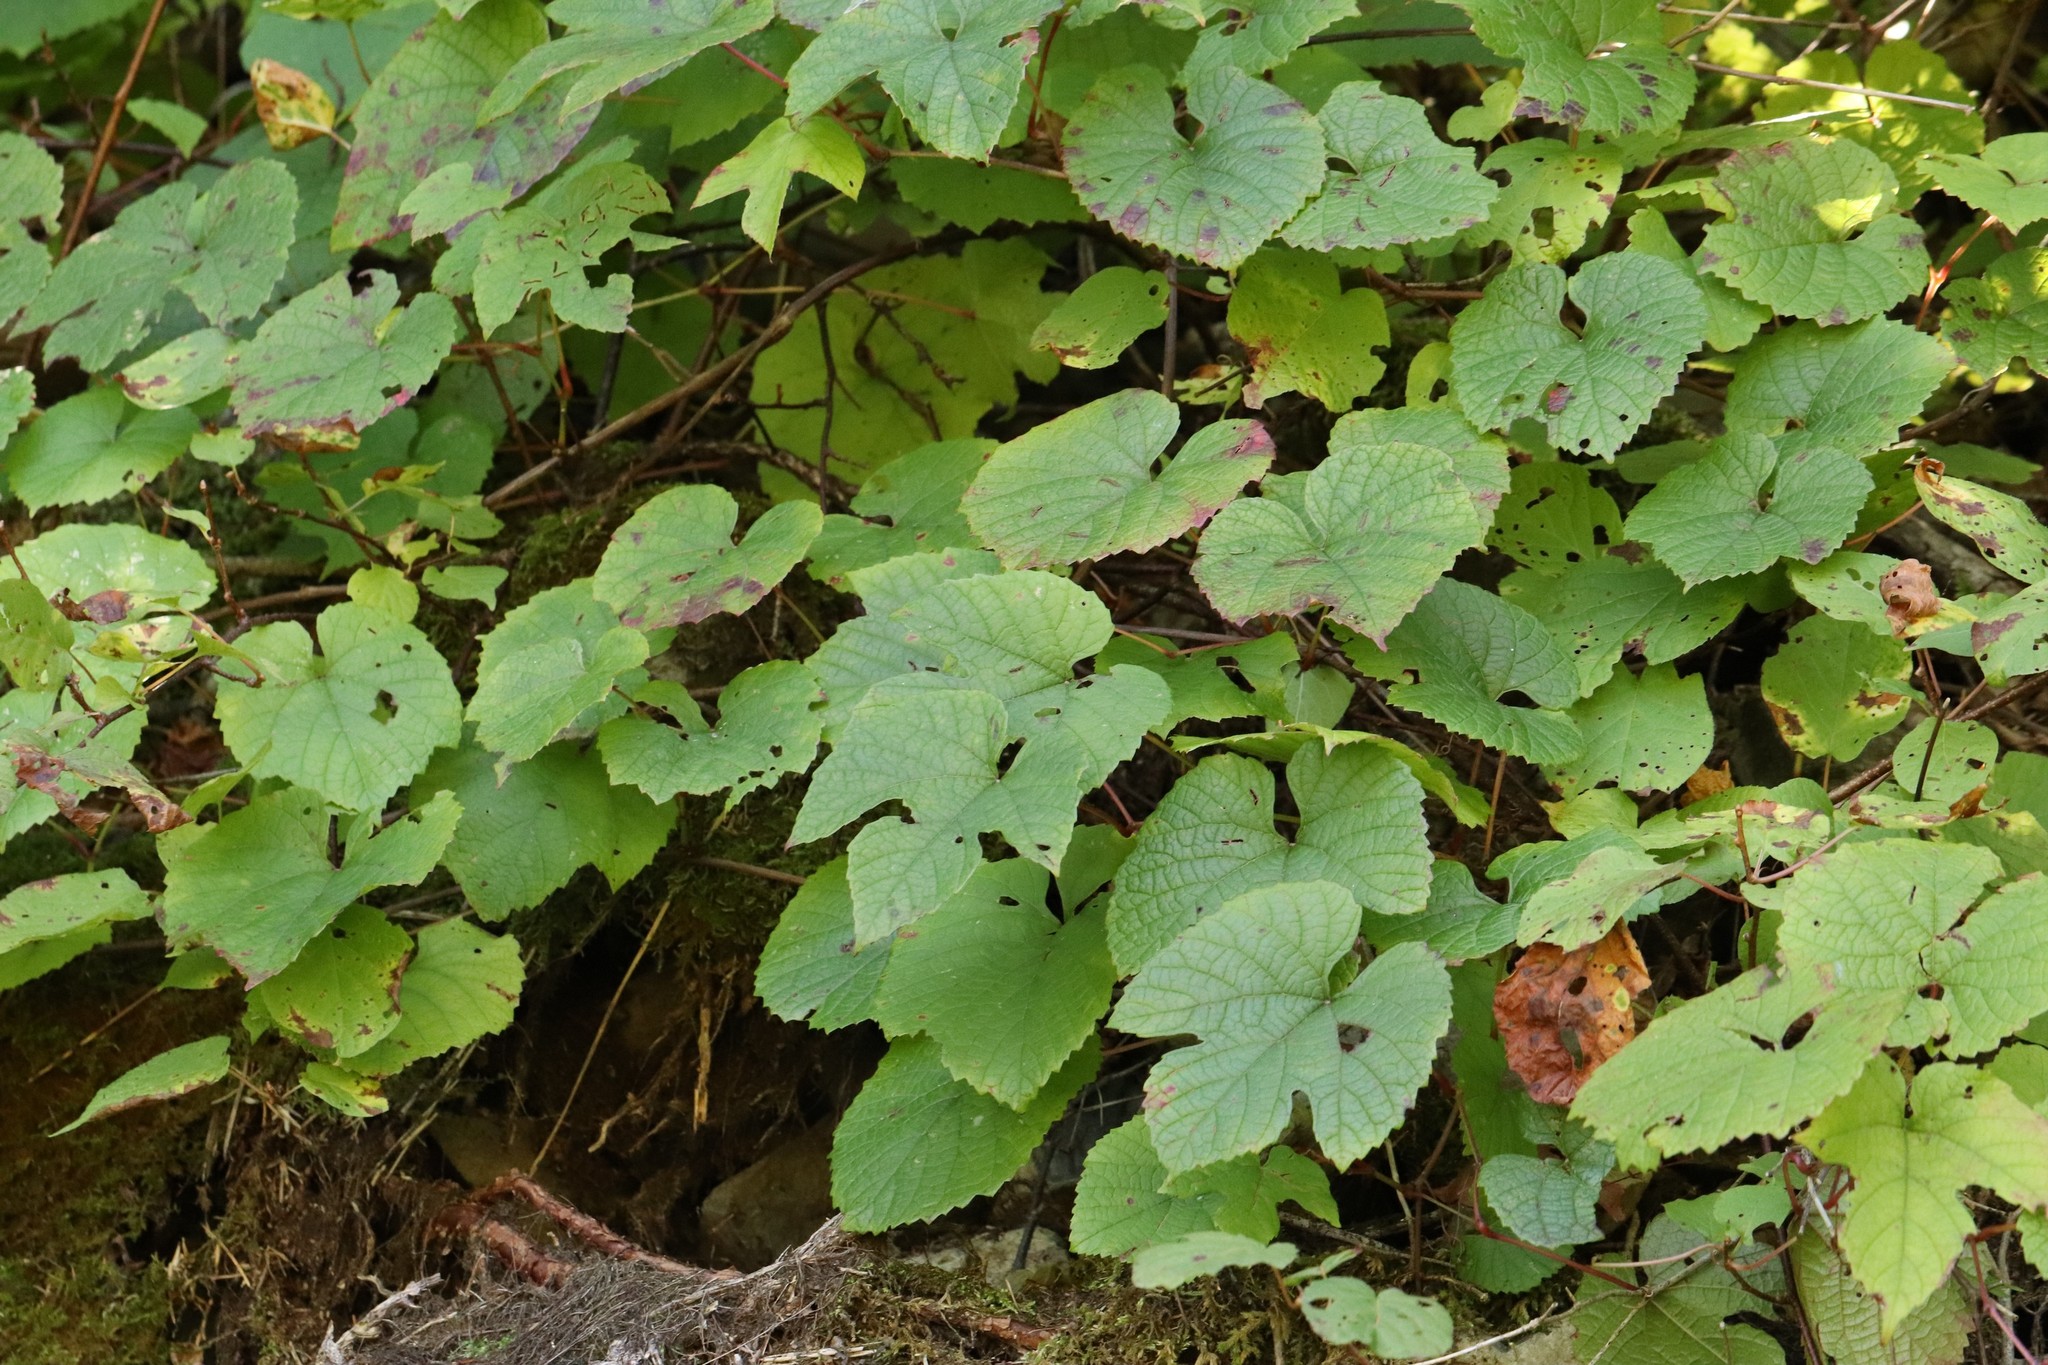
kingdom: Plantae
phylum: Tracheophyta
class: Magnoliopsida
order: Vitales
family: Vitaceae
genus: Vitis
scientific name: Vitis amurensis
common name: Amur grape
